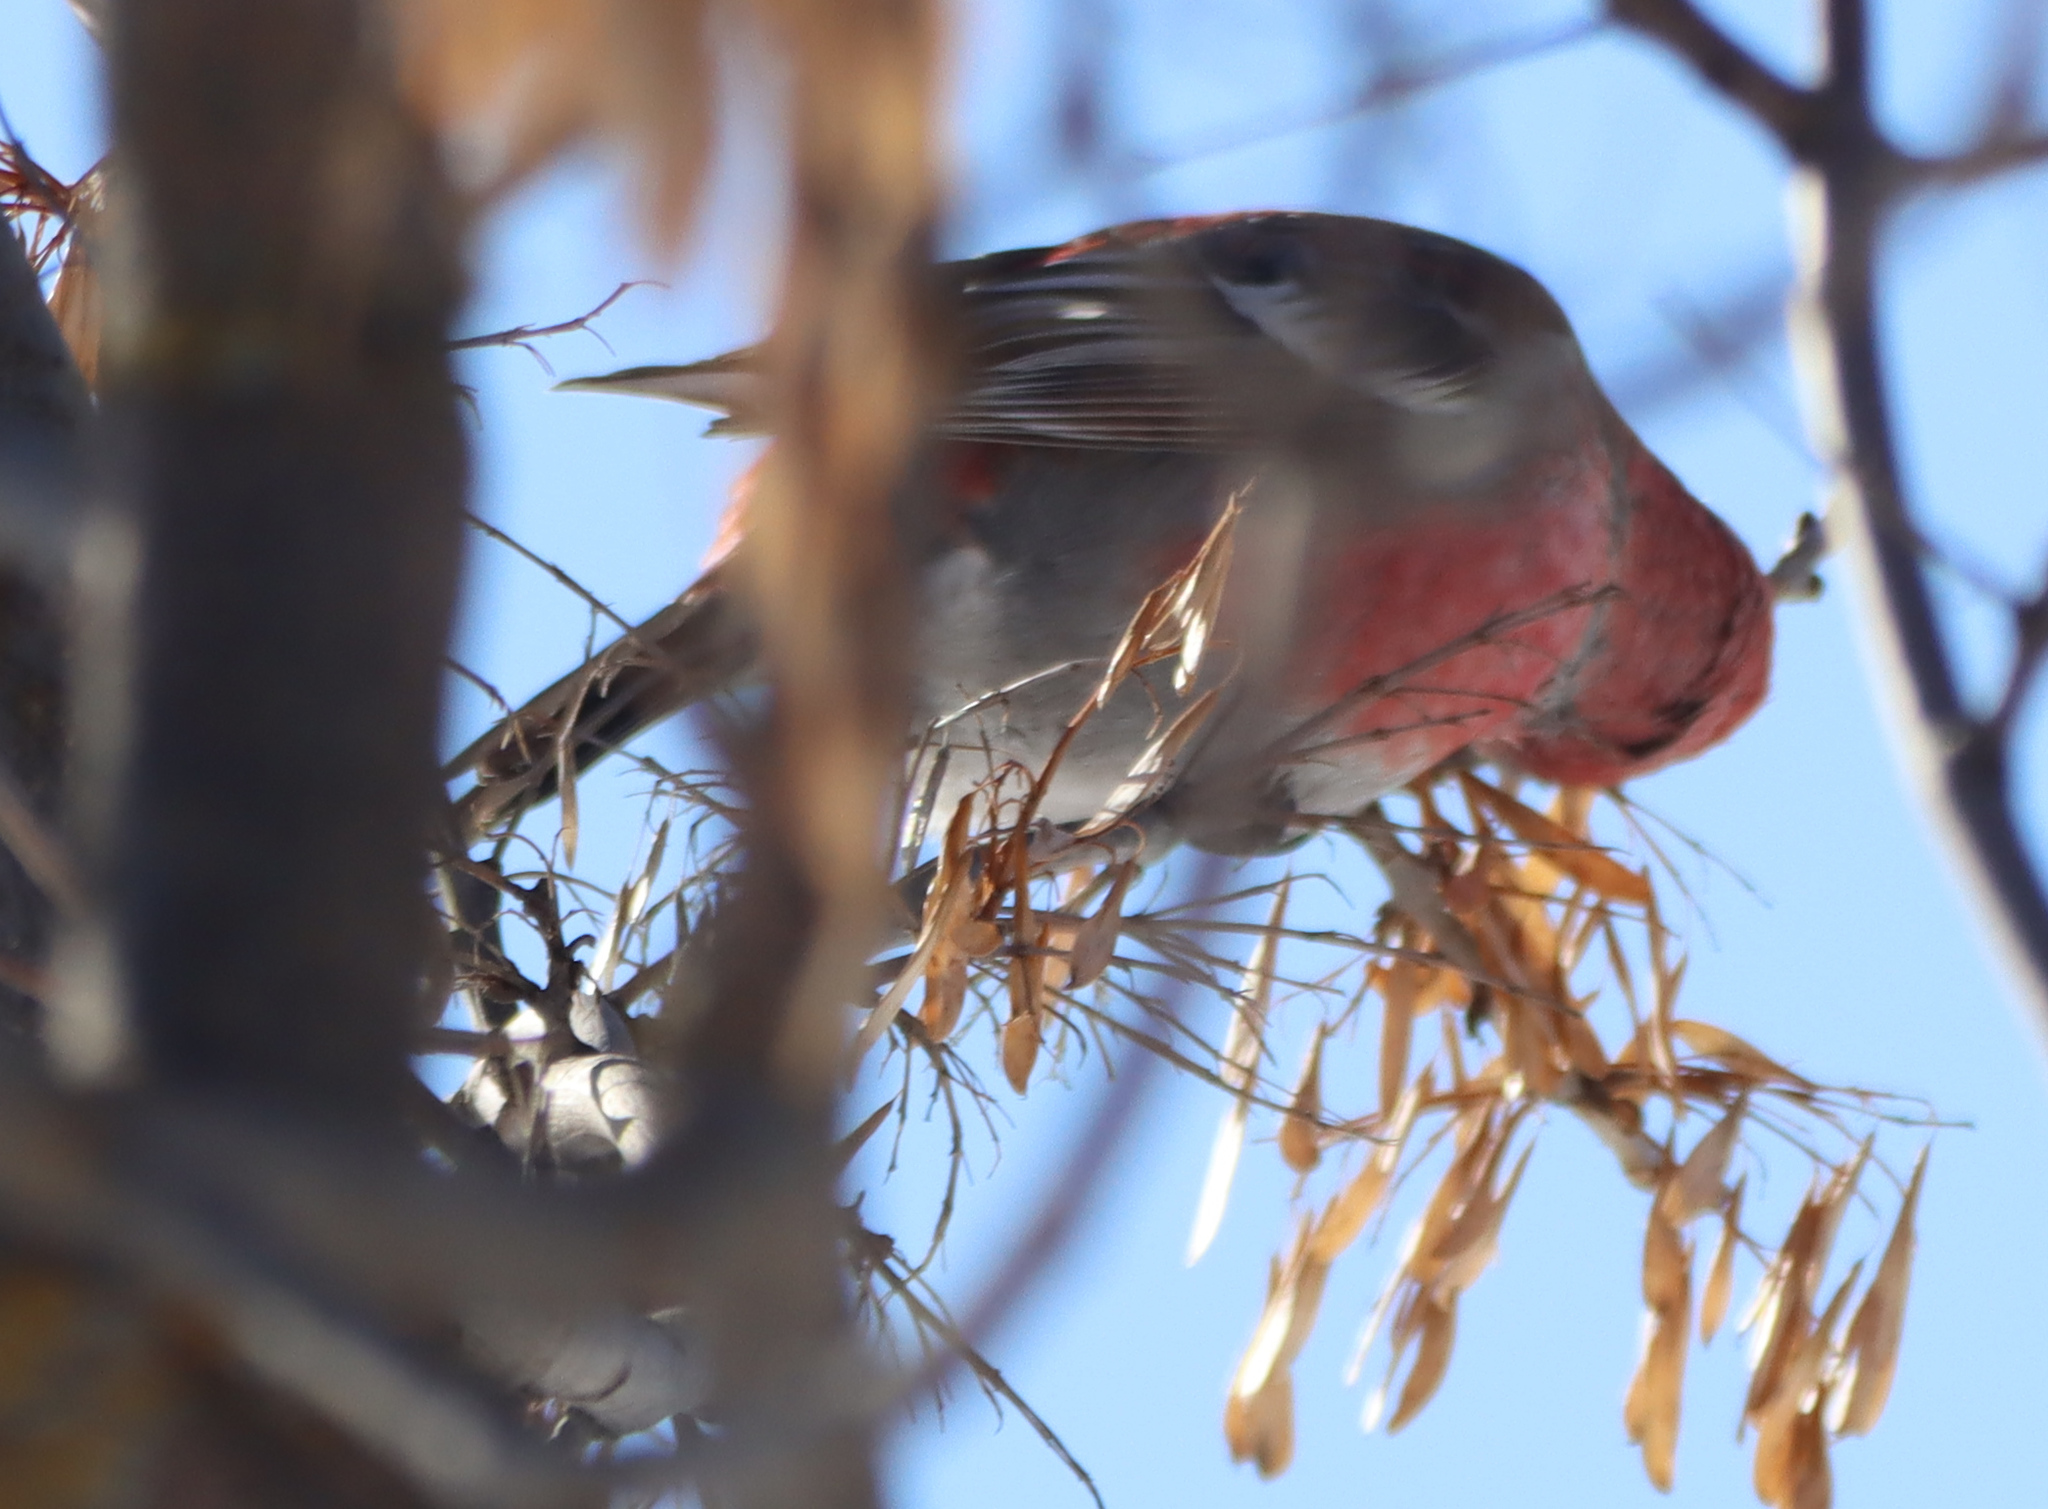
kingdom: Animalia
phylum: Chordata
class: Aves
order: Passeriformes
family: Fringillidae
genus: Pinicola
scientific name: Pinicola enucleator
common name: Pine grosbeak
